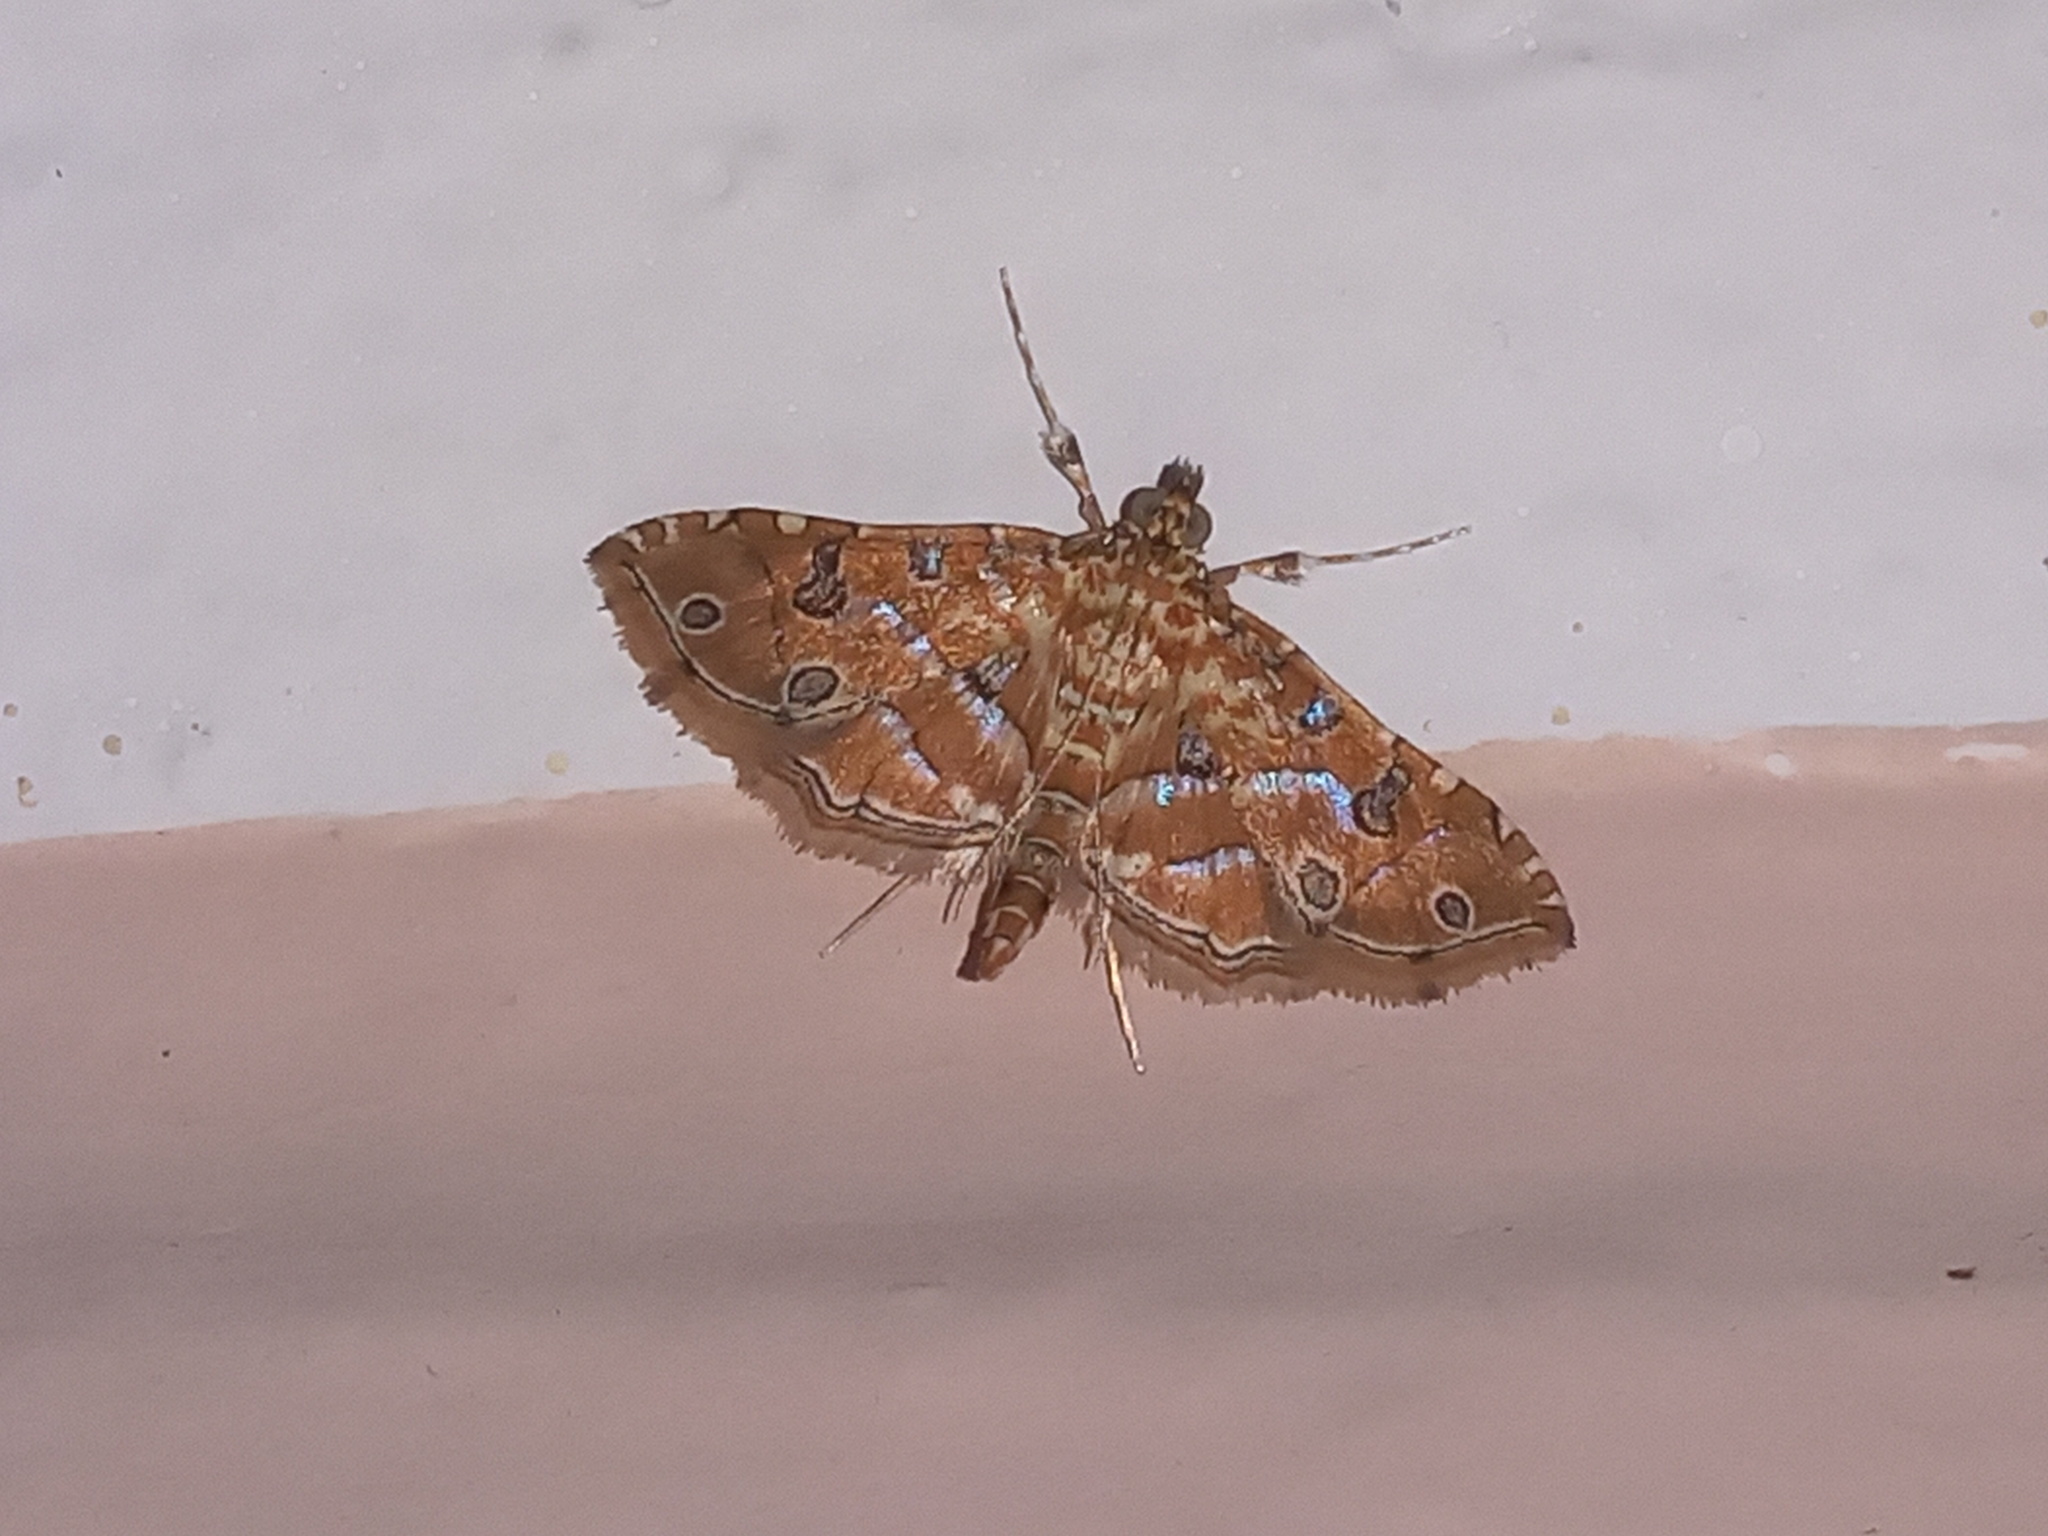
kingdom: Animalia
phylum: Arthropoda
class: Insecta
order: Lepidoptera
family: Crambidae
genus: Ommatospila
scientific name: Ommatospila narcaeusalis
